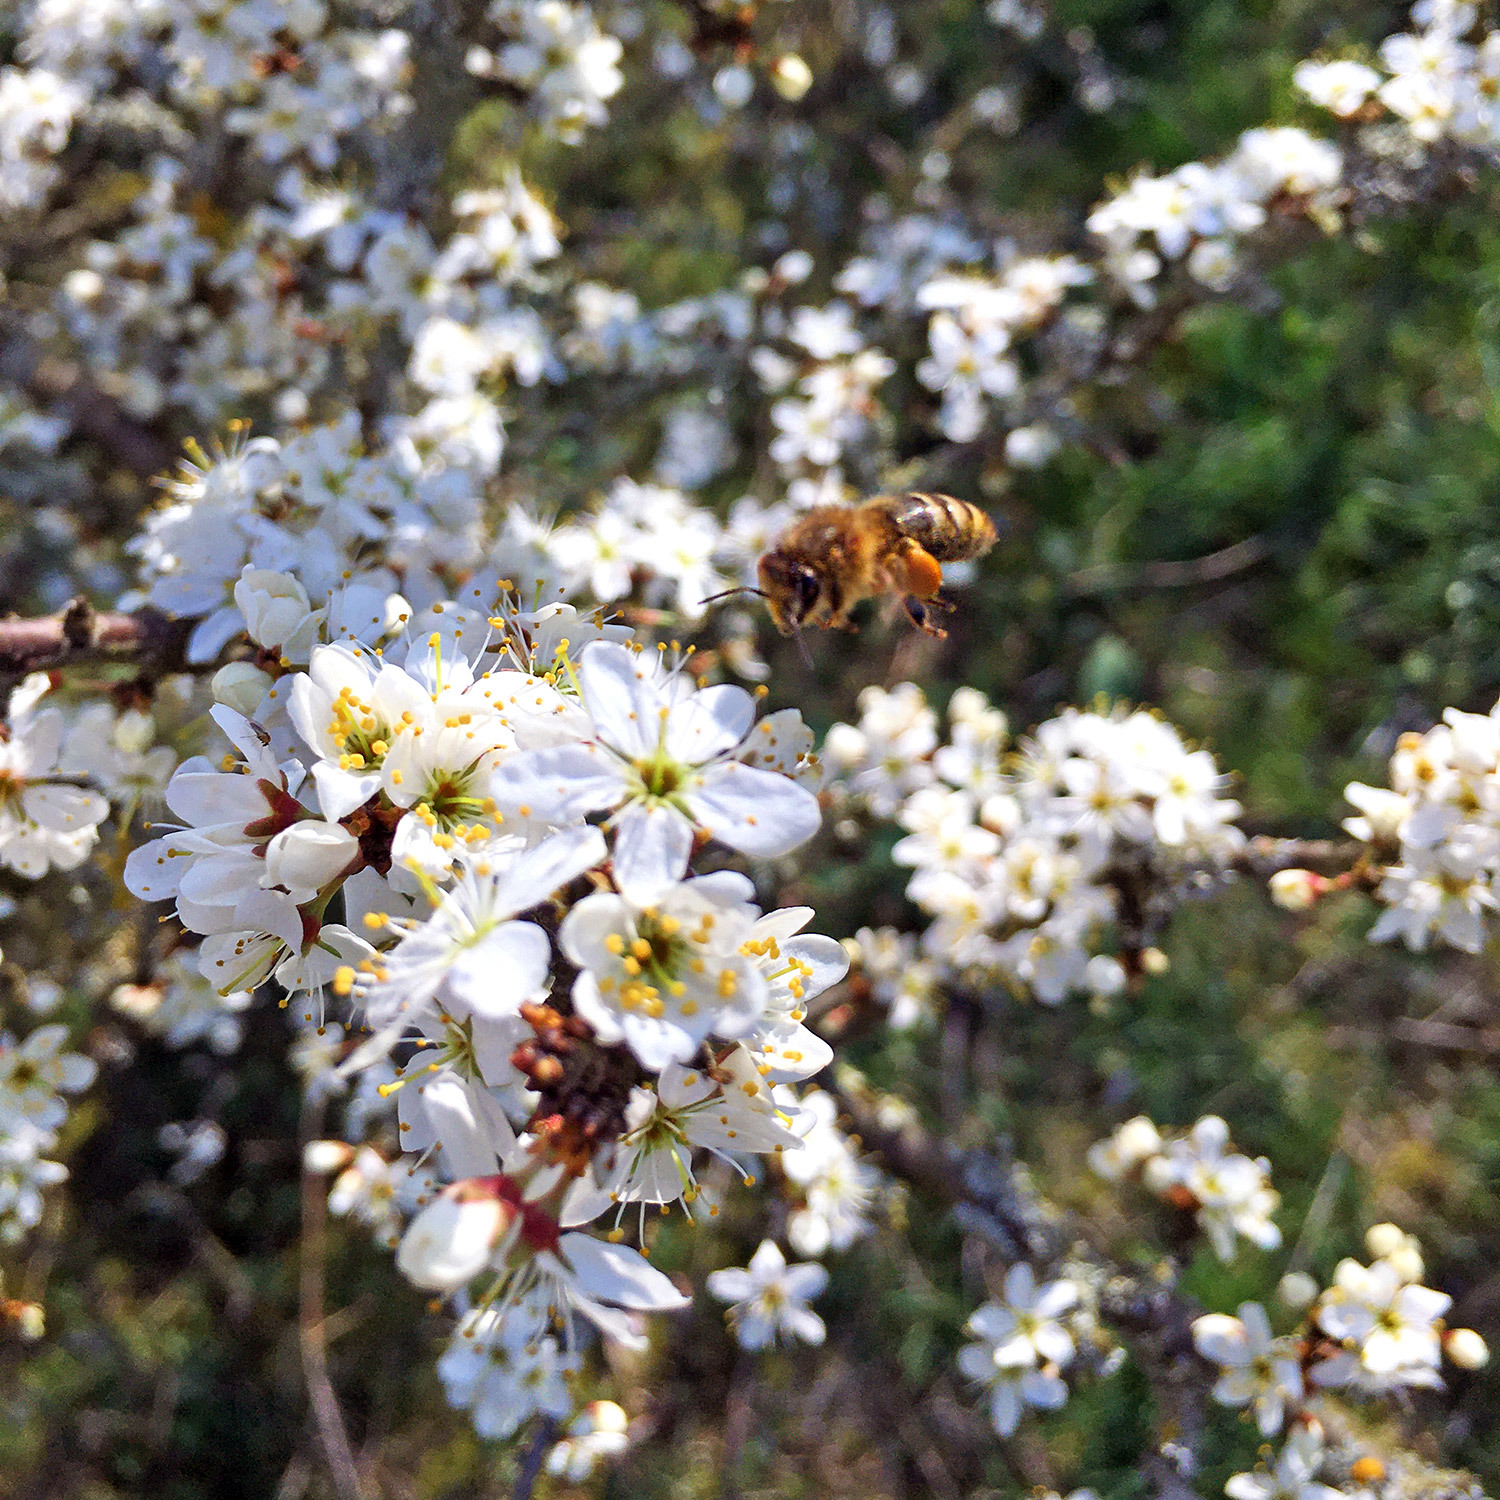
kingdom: Animalia
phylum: Arthropoda
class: Insecta
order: Hymenoptera
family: Apidae
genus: Apis
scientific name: Apis mellifera
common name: Honey bee
